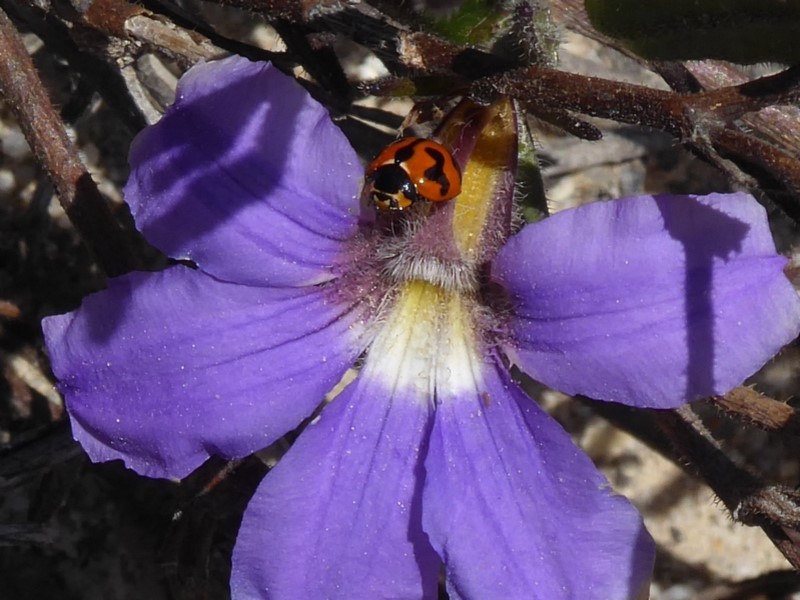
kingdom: Animalia
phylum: Arthropoda
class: Insecta
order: Coleoptera
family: Coccinellidae
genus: Coccinella
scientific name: Coccinella transversalis
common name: Transverse lady beetle
